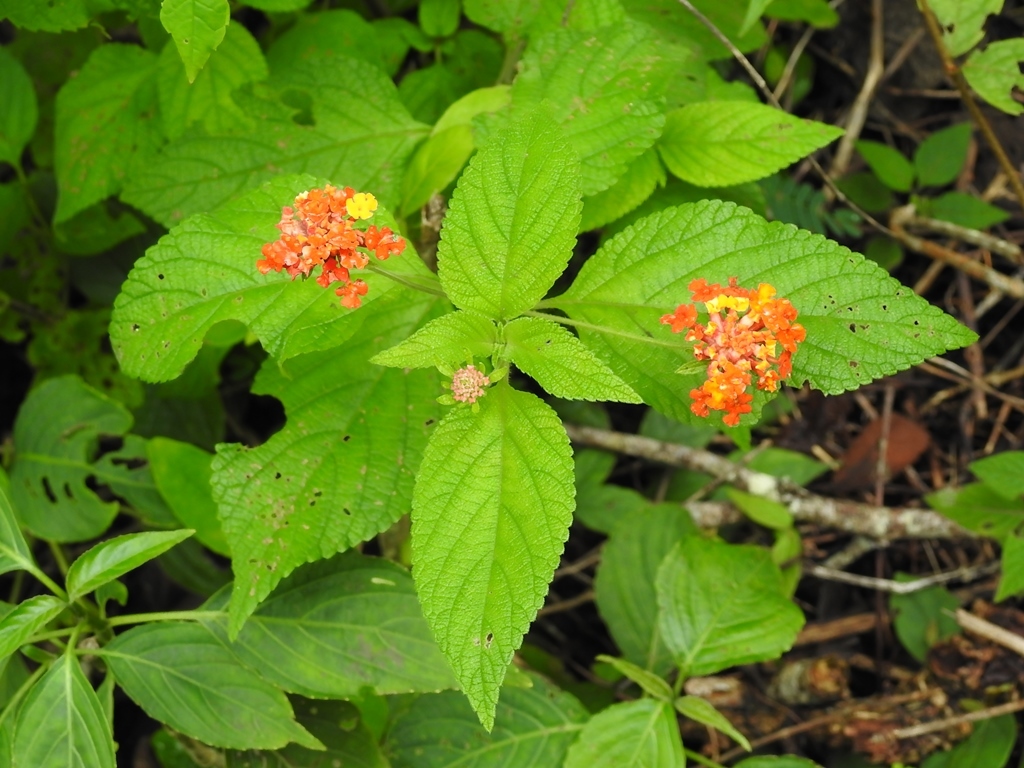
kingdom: Plantae
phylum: Tracheophyta
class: Magnoliopsida
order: Lamiales
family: Verbenaceae
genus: Lantana
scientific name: Lantana camara
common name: Lantana
